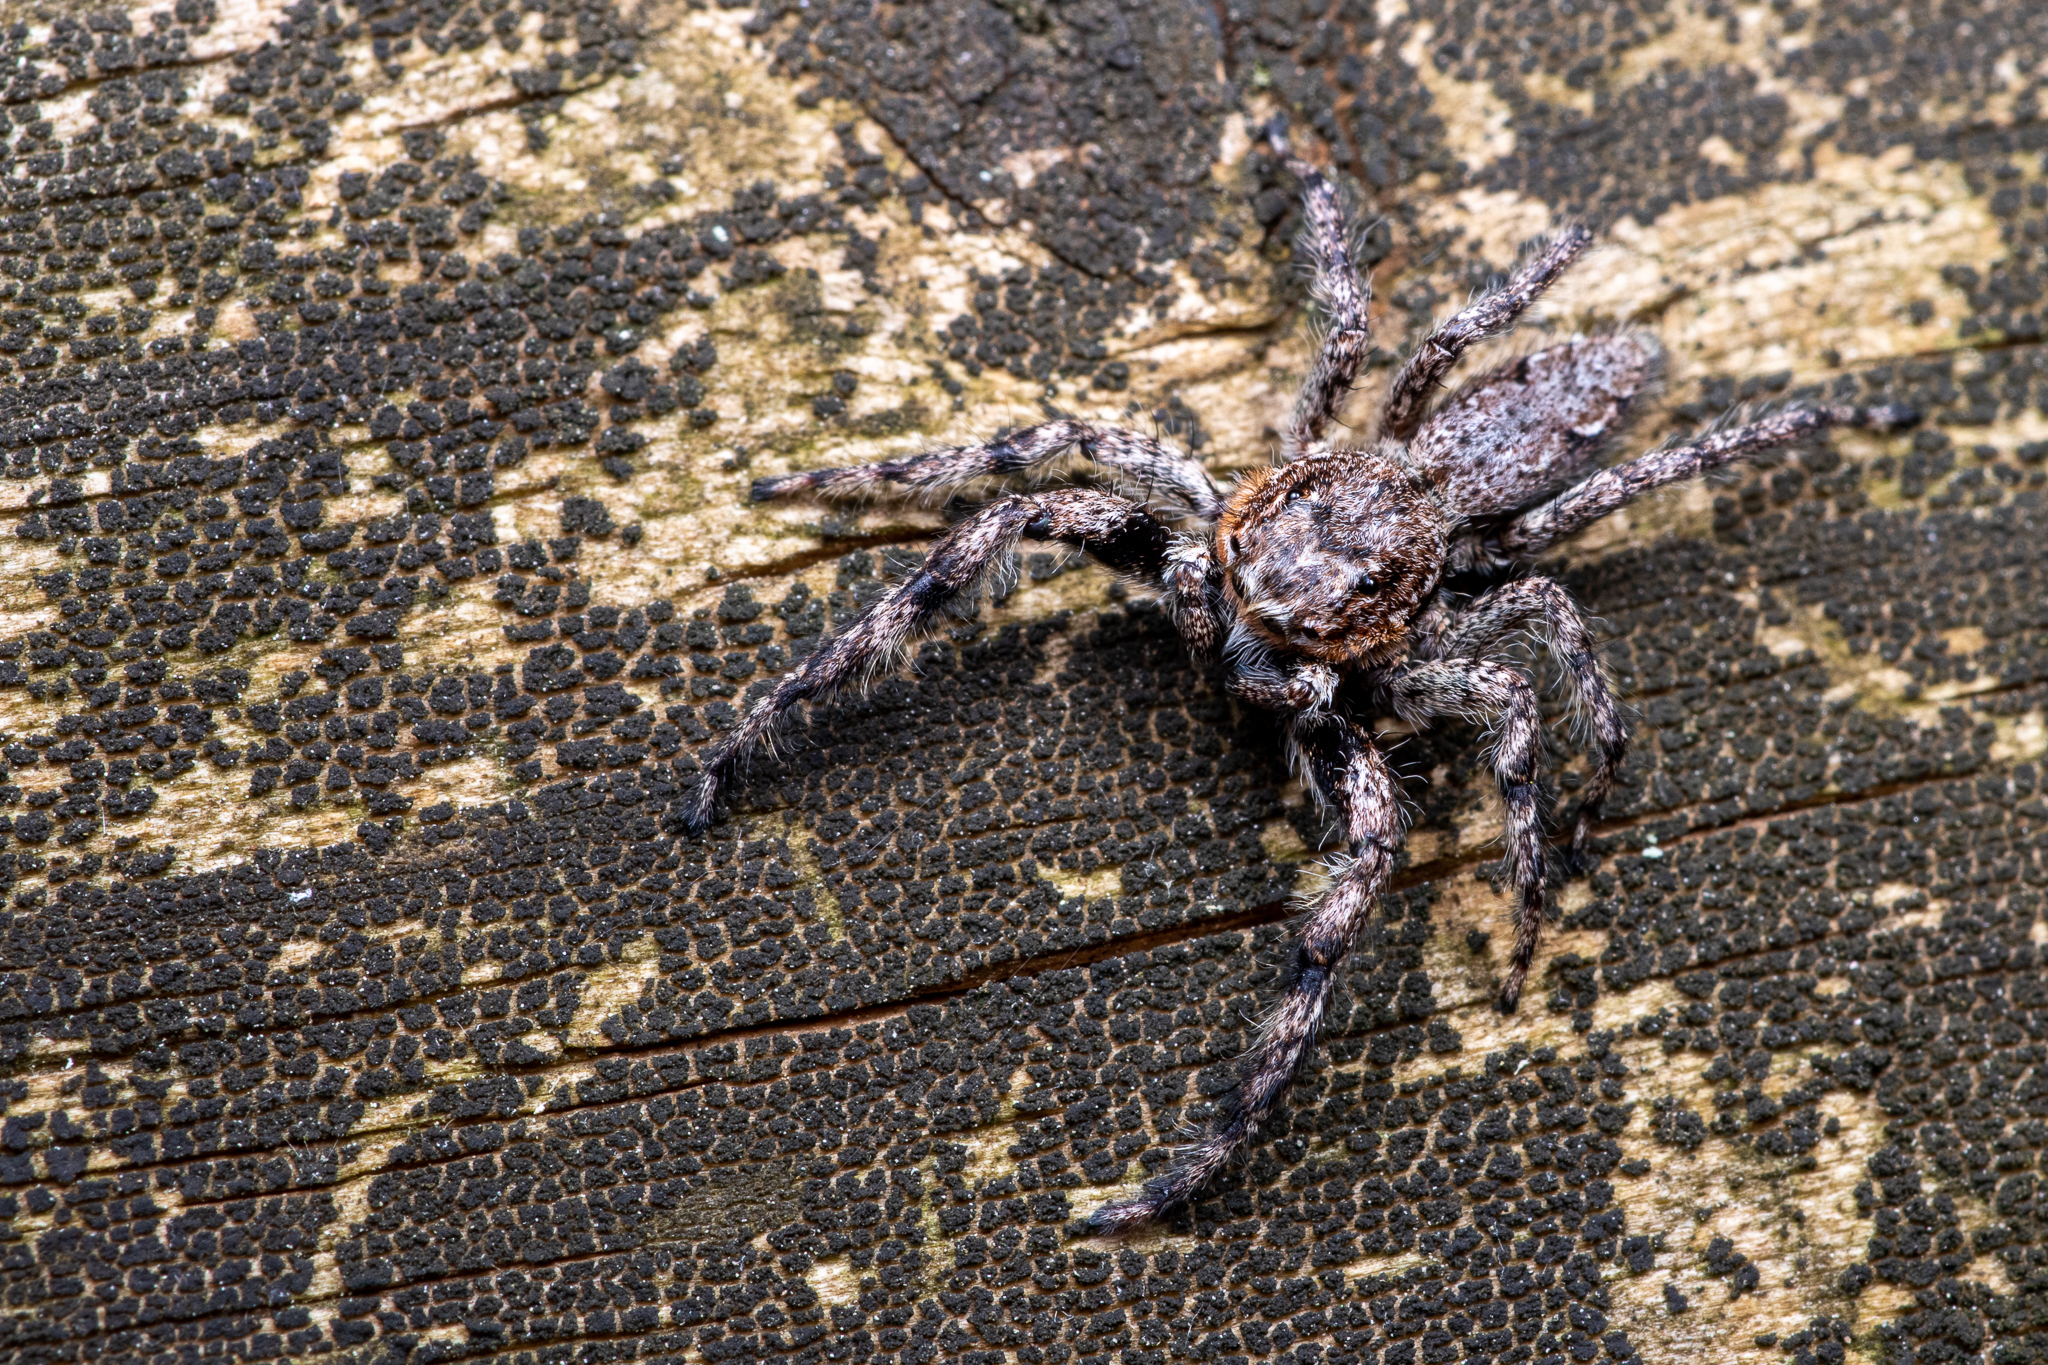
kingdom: Animalia
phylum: Arthropoda
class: Arachnida
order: Araneae
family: Salticidae
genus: Platycryptus
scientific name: Platycryptus undatus
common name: Tan jumping spider
